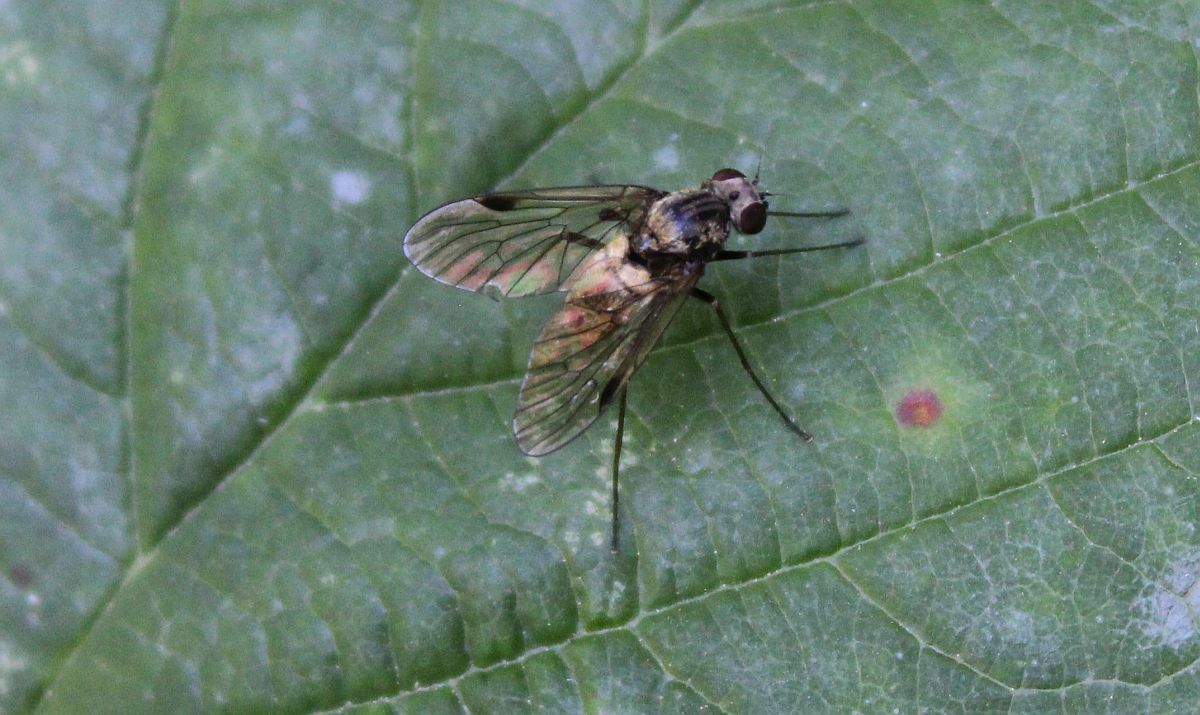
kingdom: Animalia
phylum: Arthropoda
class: Insecta
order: Diptera
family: Rhagionidae
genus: Chrysopilus
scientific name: Chrysopilus cristatus
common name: Black snipefly
